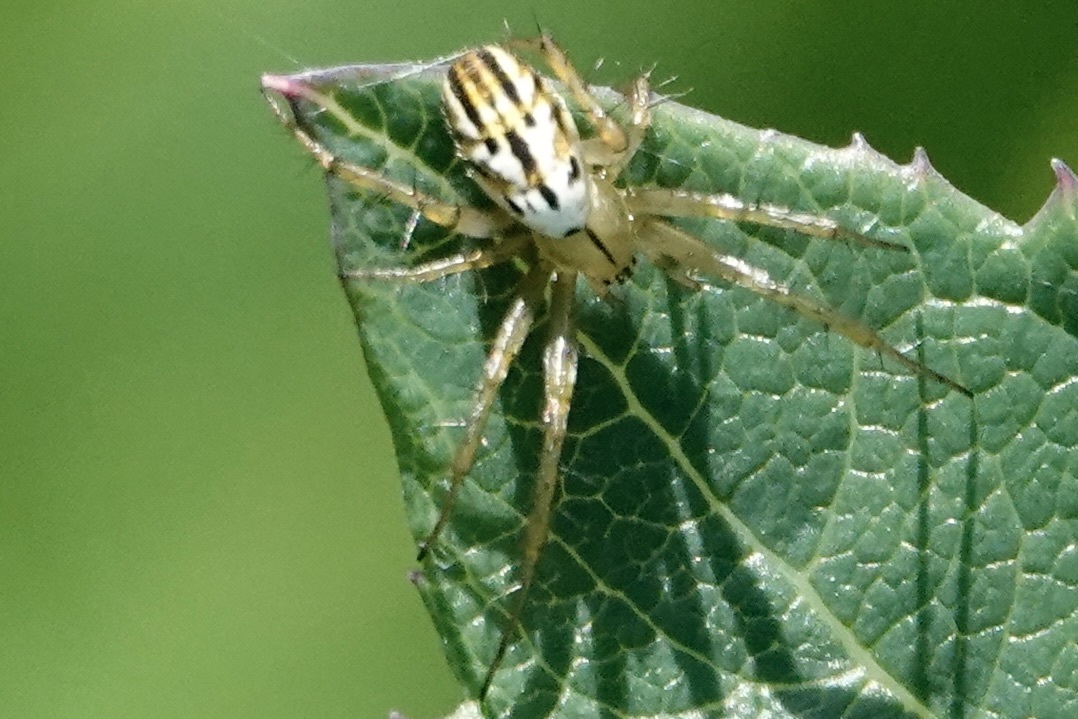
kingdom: Animalia
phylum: Arthropoda
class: Arachnida
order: Araneae
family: Araneidae
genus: Mangora
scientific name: Mangora gibberosa
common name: Lined orbweaver
